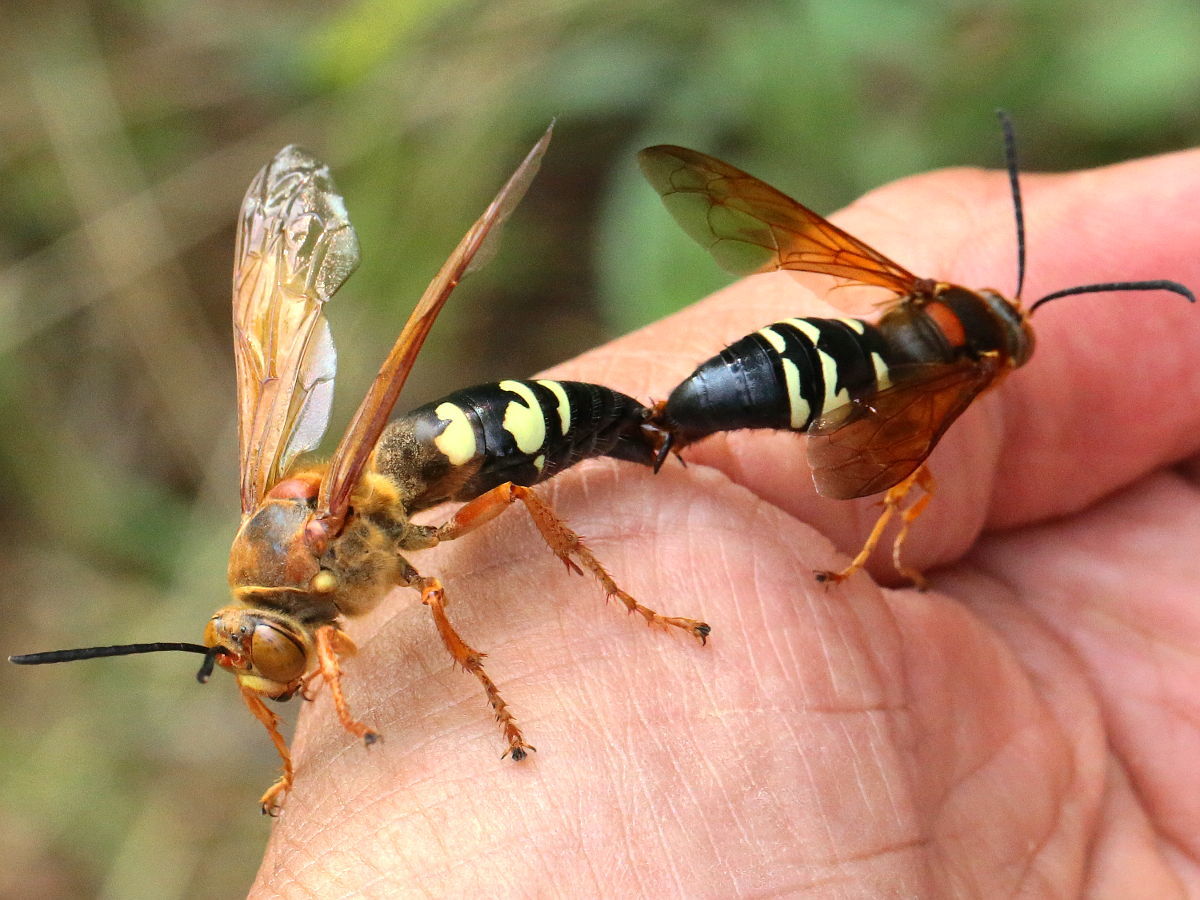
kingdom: Animalia
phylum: Arthropoda
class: Insecta
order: Hymenoptera
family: Crabronidae
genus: Sphecius
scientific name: Sphecius speciosus
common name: Cicada killer
